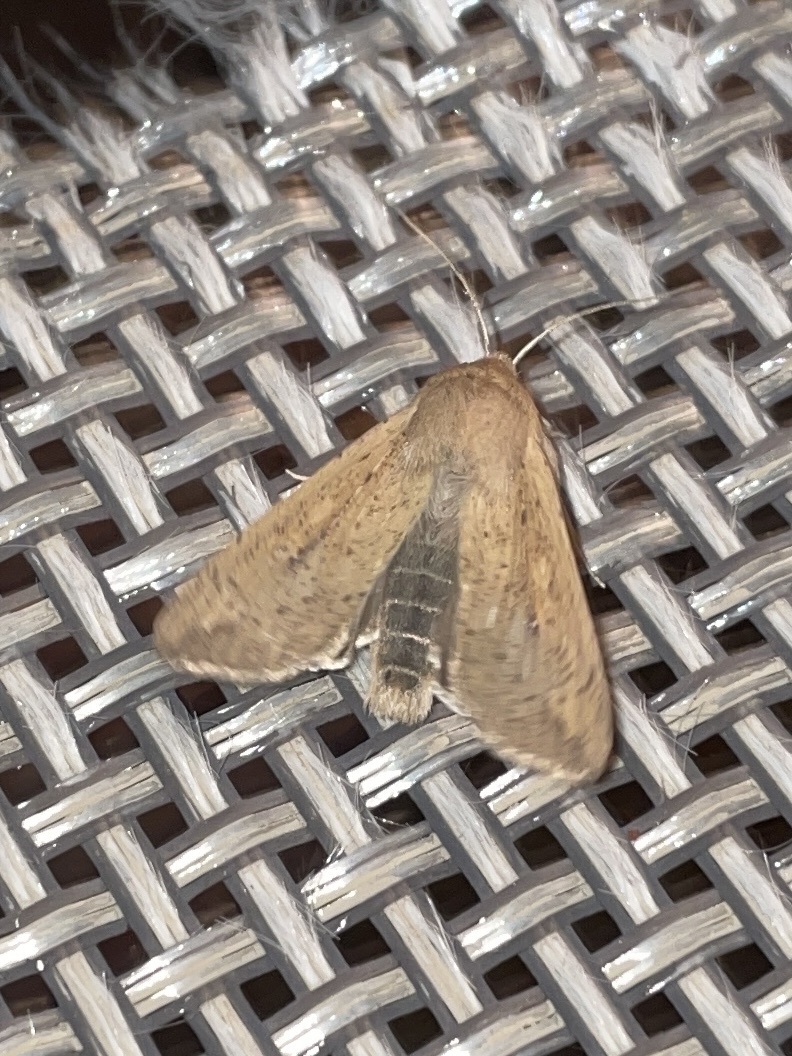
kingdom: Animalia
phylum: Arthropoda
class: Insecta
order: Lepidoptera
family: Noctuidae
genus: Mythimna
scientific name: Mythimna unipuncta
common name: White-speck
